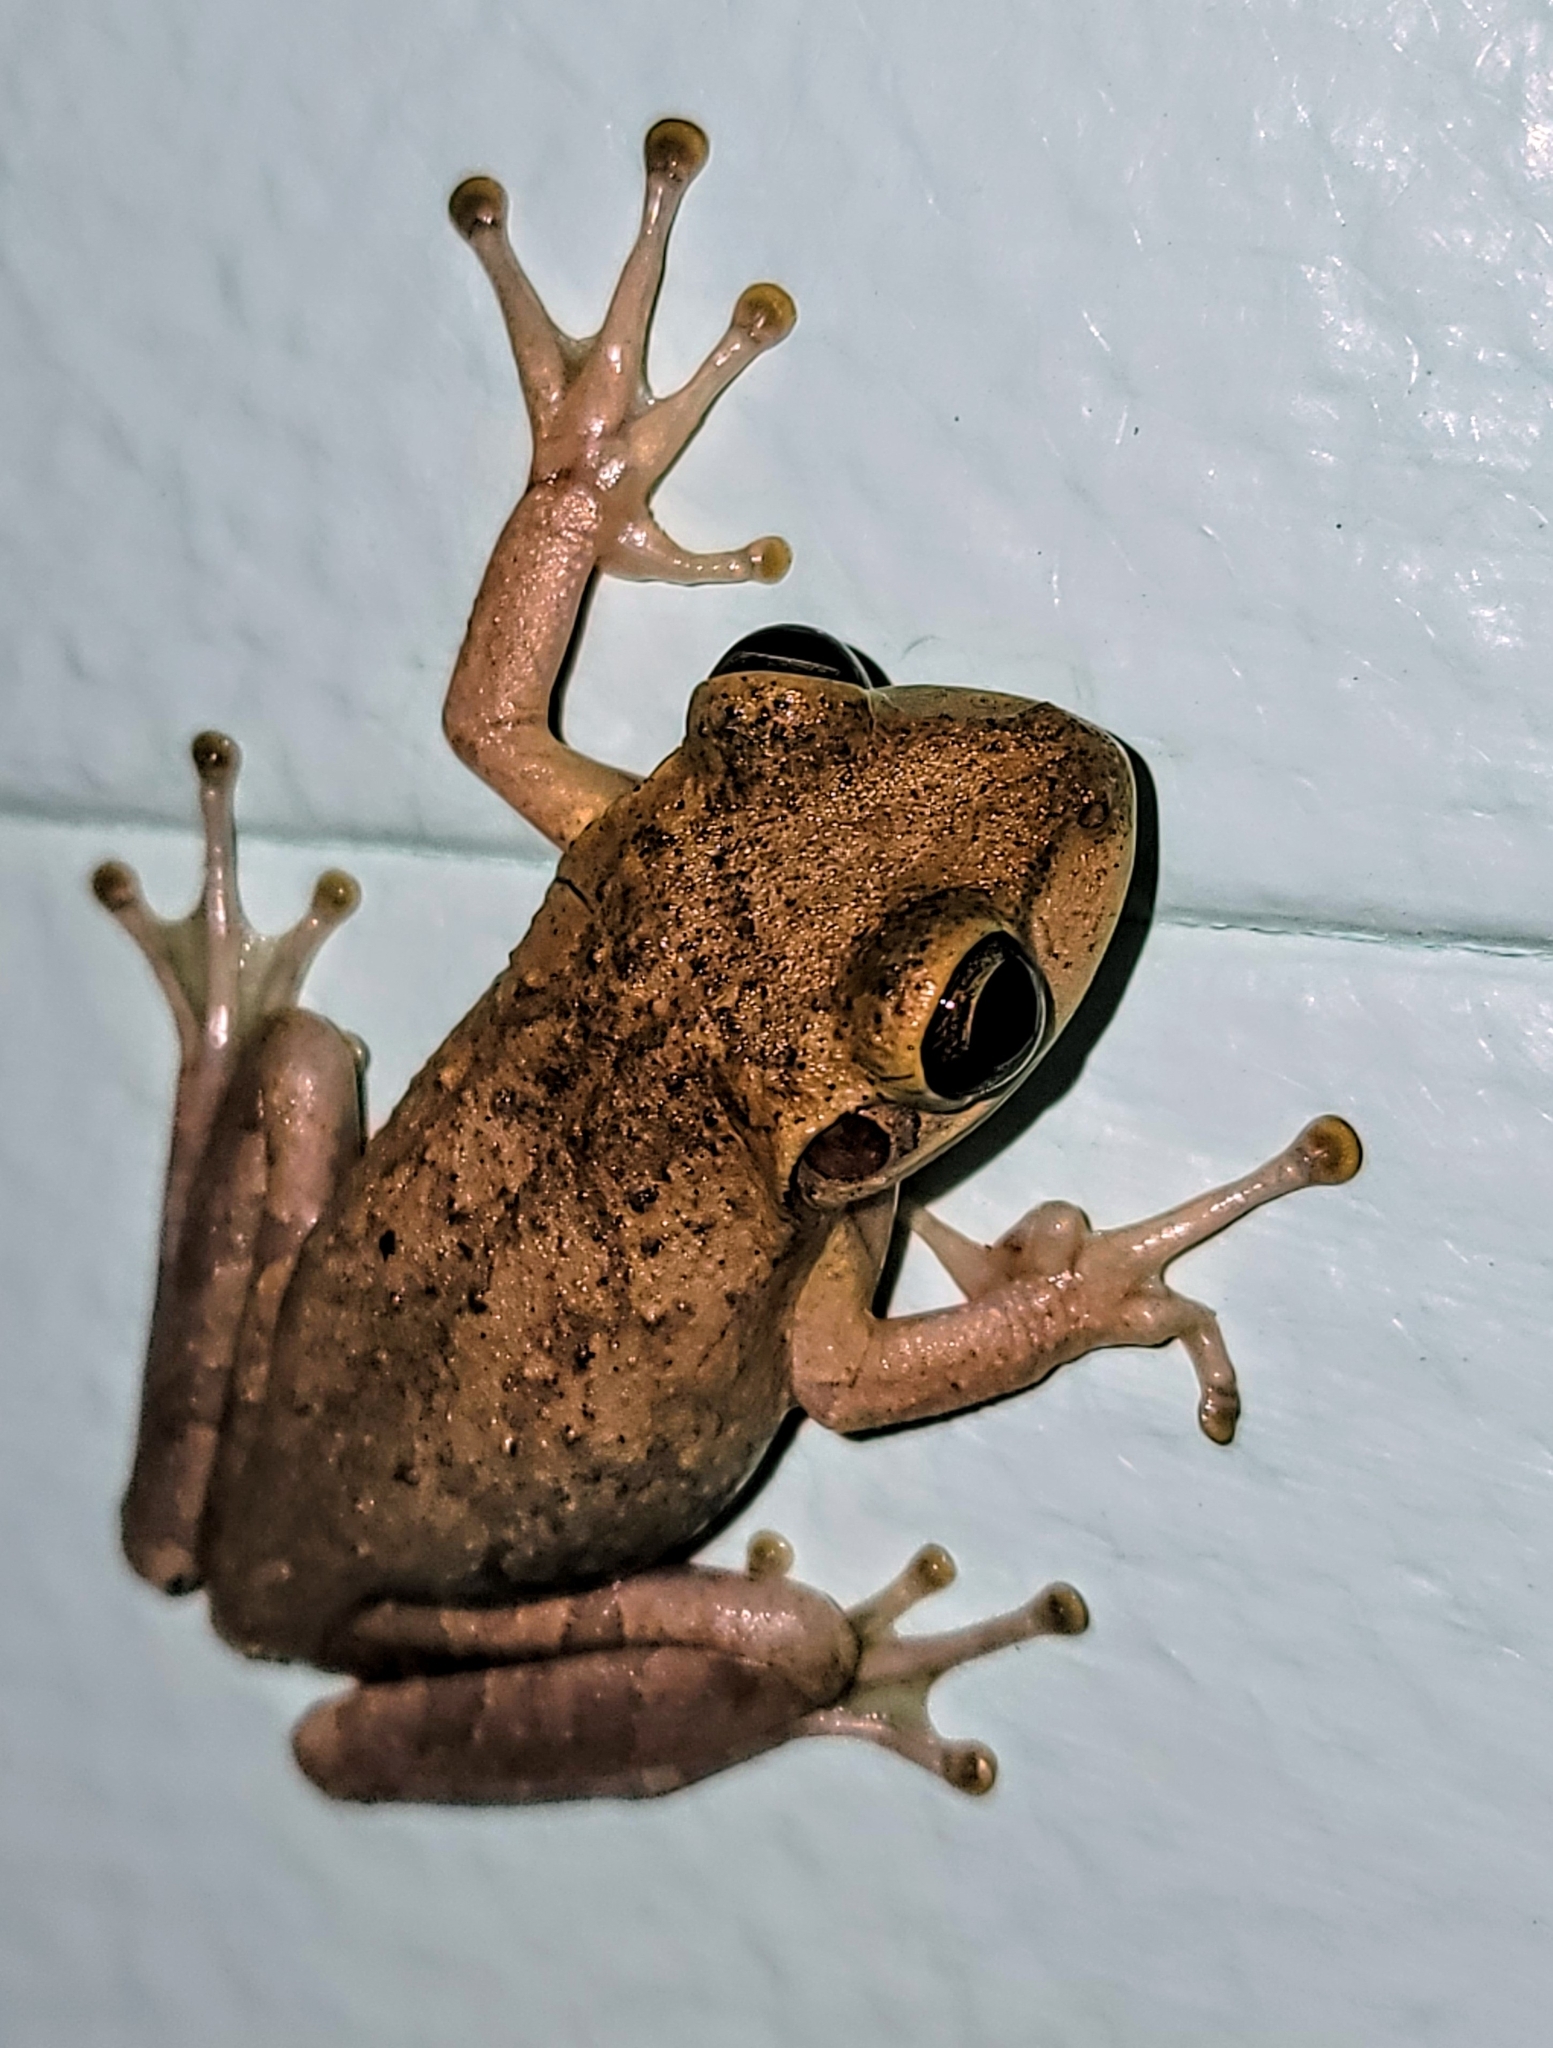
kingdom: Animalia
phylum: Chordata
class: Amphibia
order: Anura
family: Hylidae
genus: Osteopilus
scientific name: Osteopilus septentrionalis
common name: Cuban treefrog
